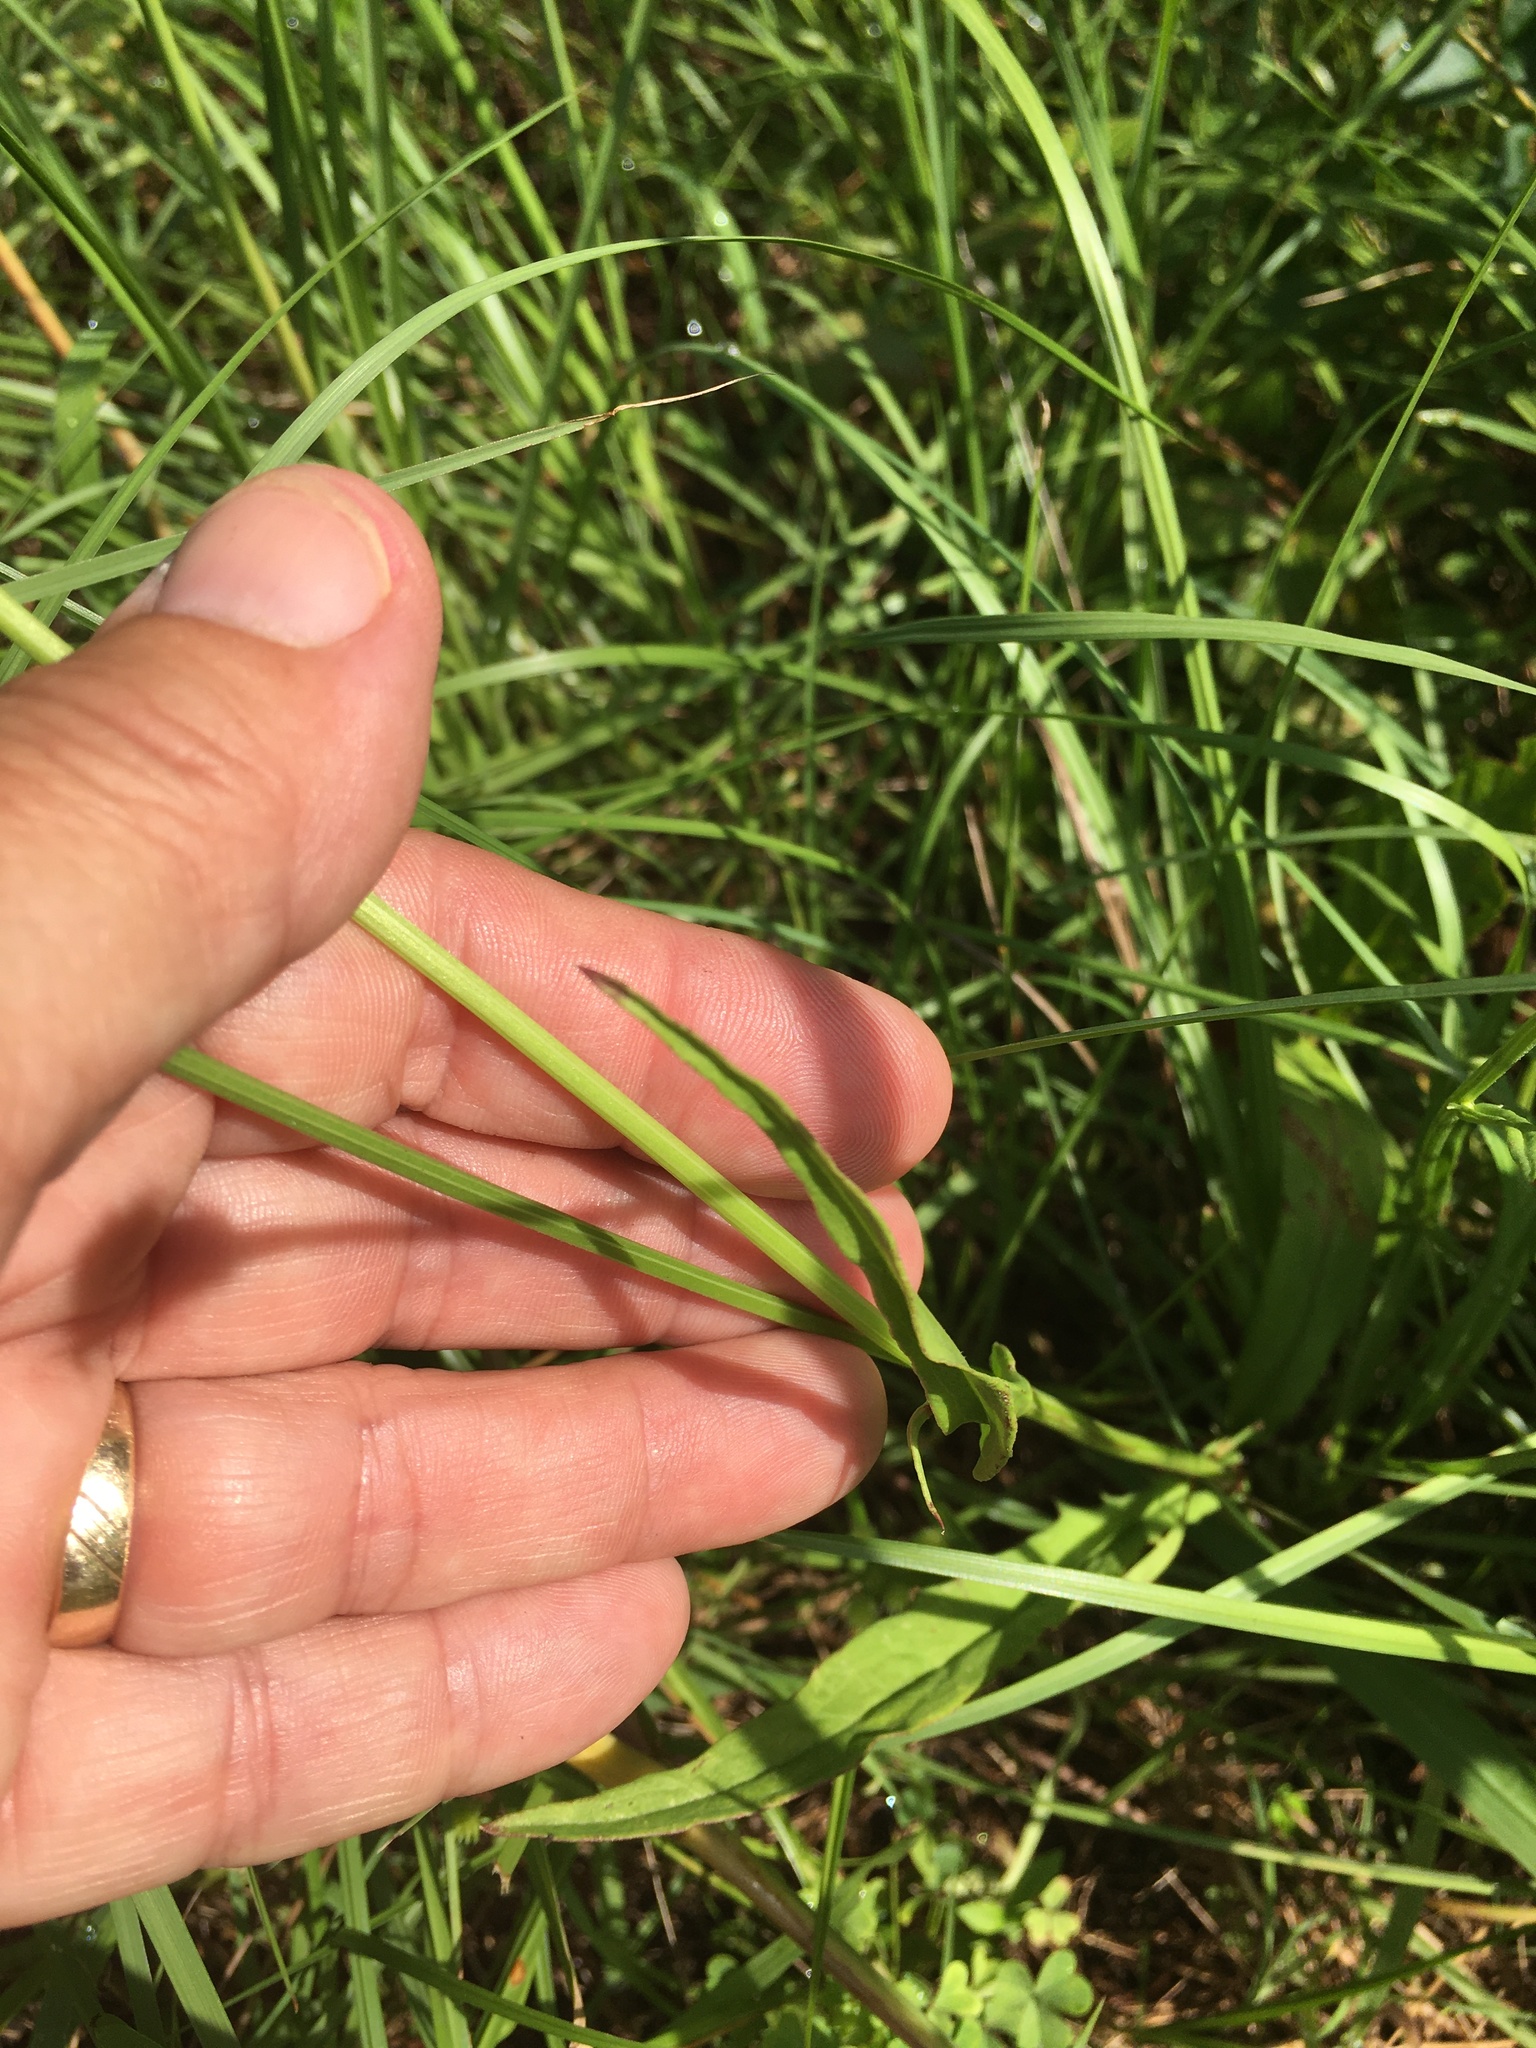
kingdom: Plantae
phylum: Tracheophyta
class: Magnoliopsida
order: Asterales
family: Asteraceae
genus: Pyrrhopappus
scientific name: Pyrrhopappus carolinianus
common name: Carolina desert-chicory
